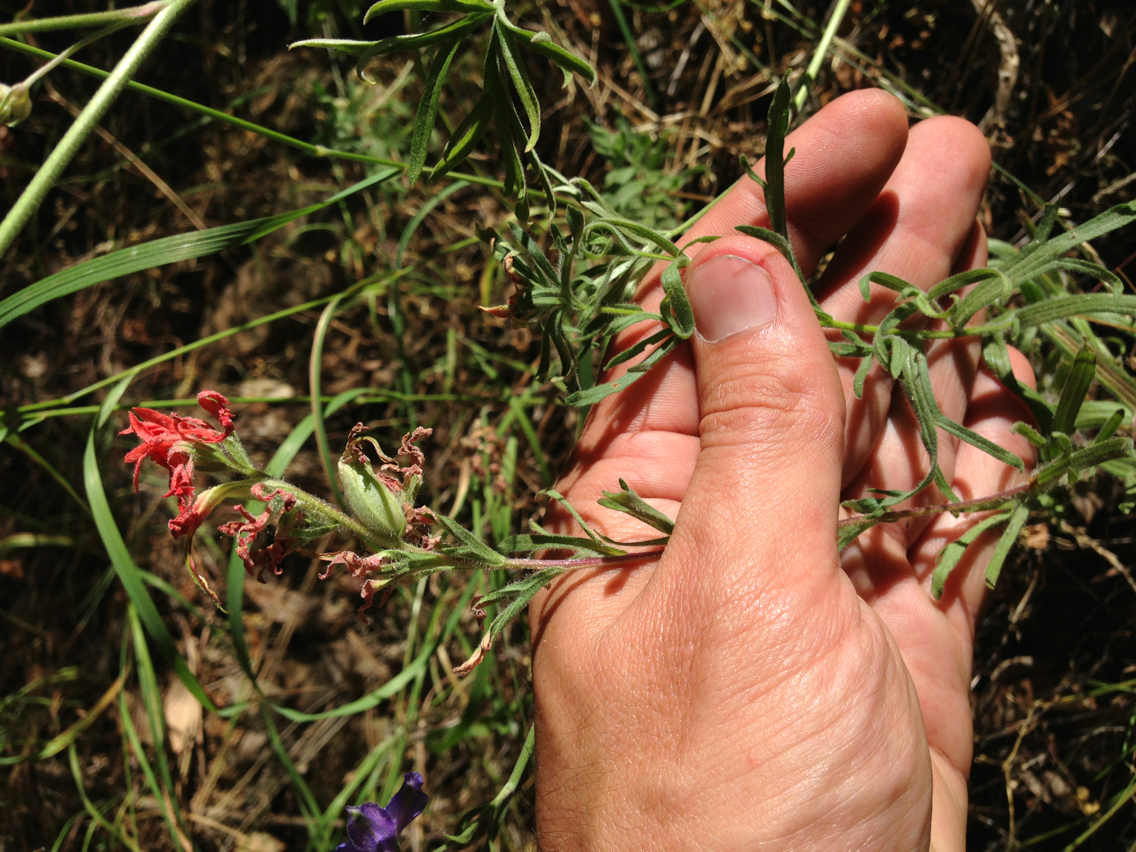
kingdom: Plantae
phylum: Tracheophyta
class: Magnoliopsida
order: Lamiales
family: Orobanchaceae
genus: Castilleja
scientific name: Castilleja affinis
